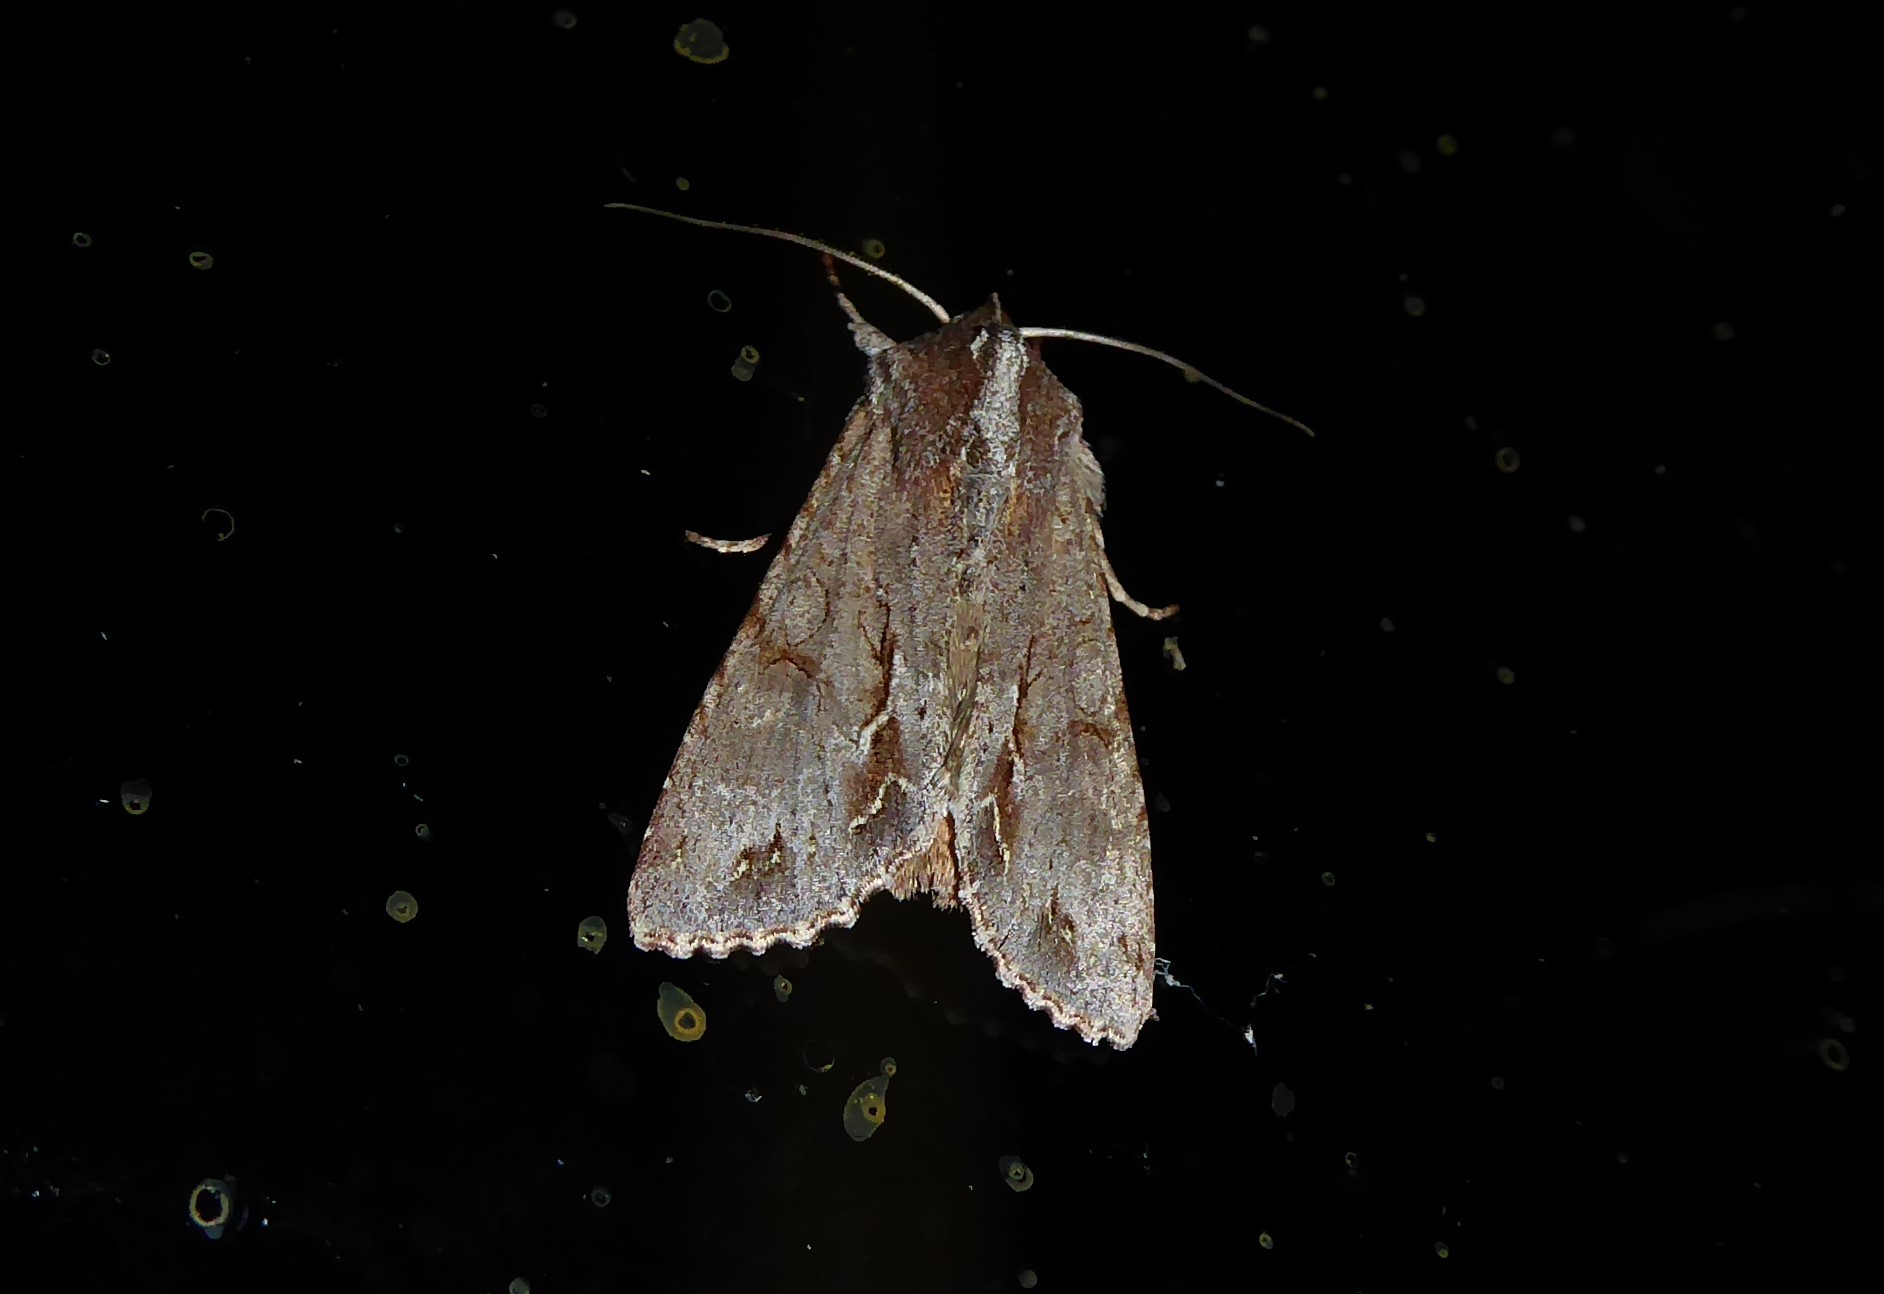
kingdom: Animalia
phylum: Arthropoda
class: Insecta
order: Lepidoptera
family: Noctuidae
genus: Ichneutica
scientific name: Ichneutica
